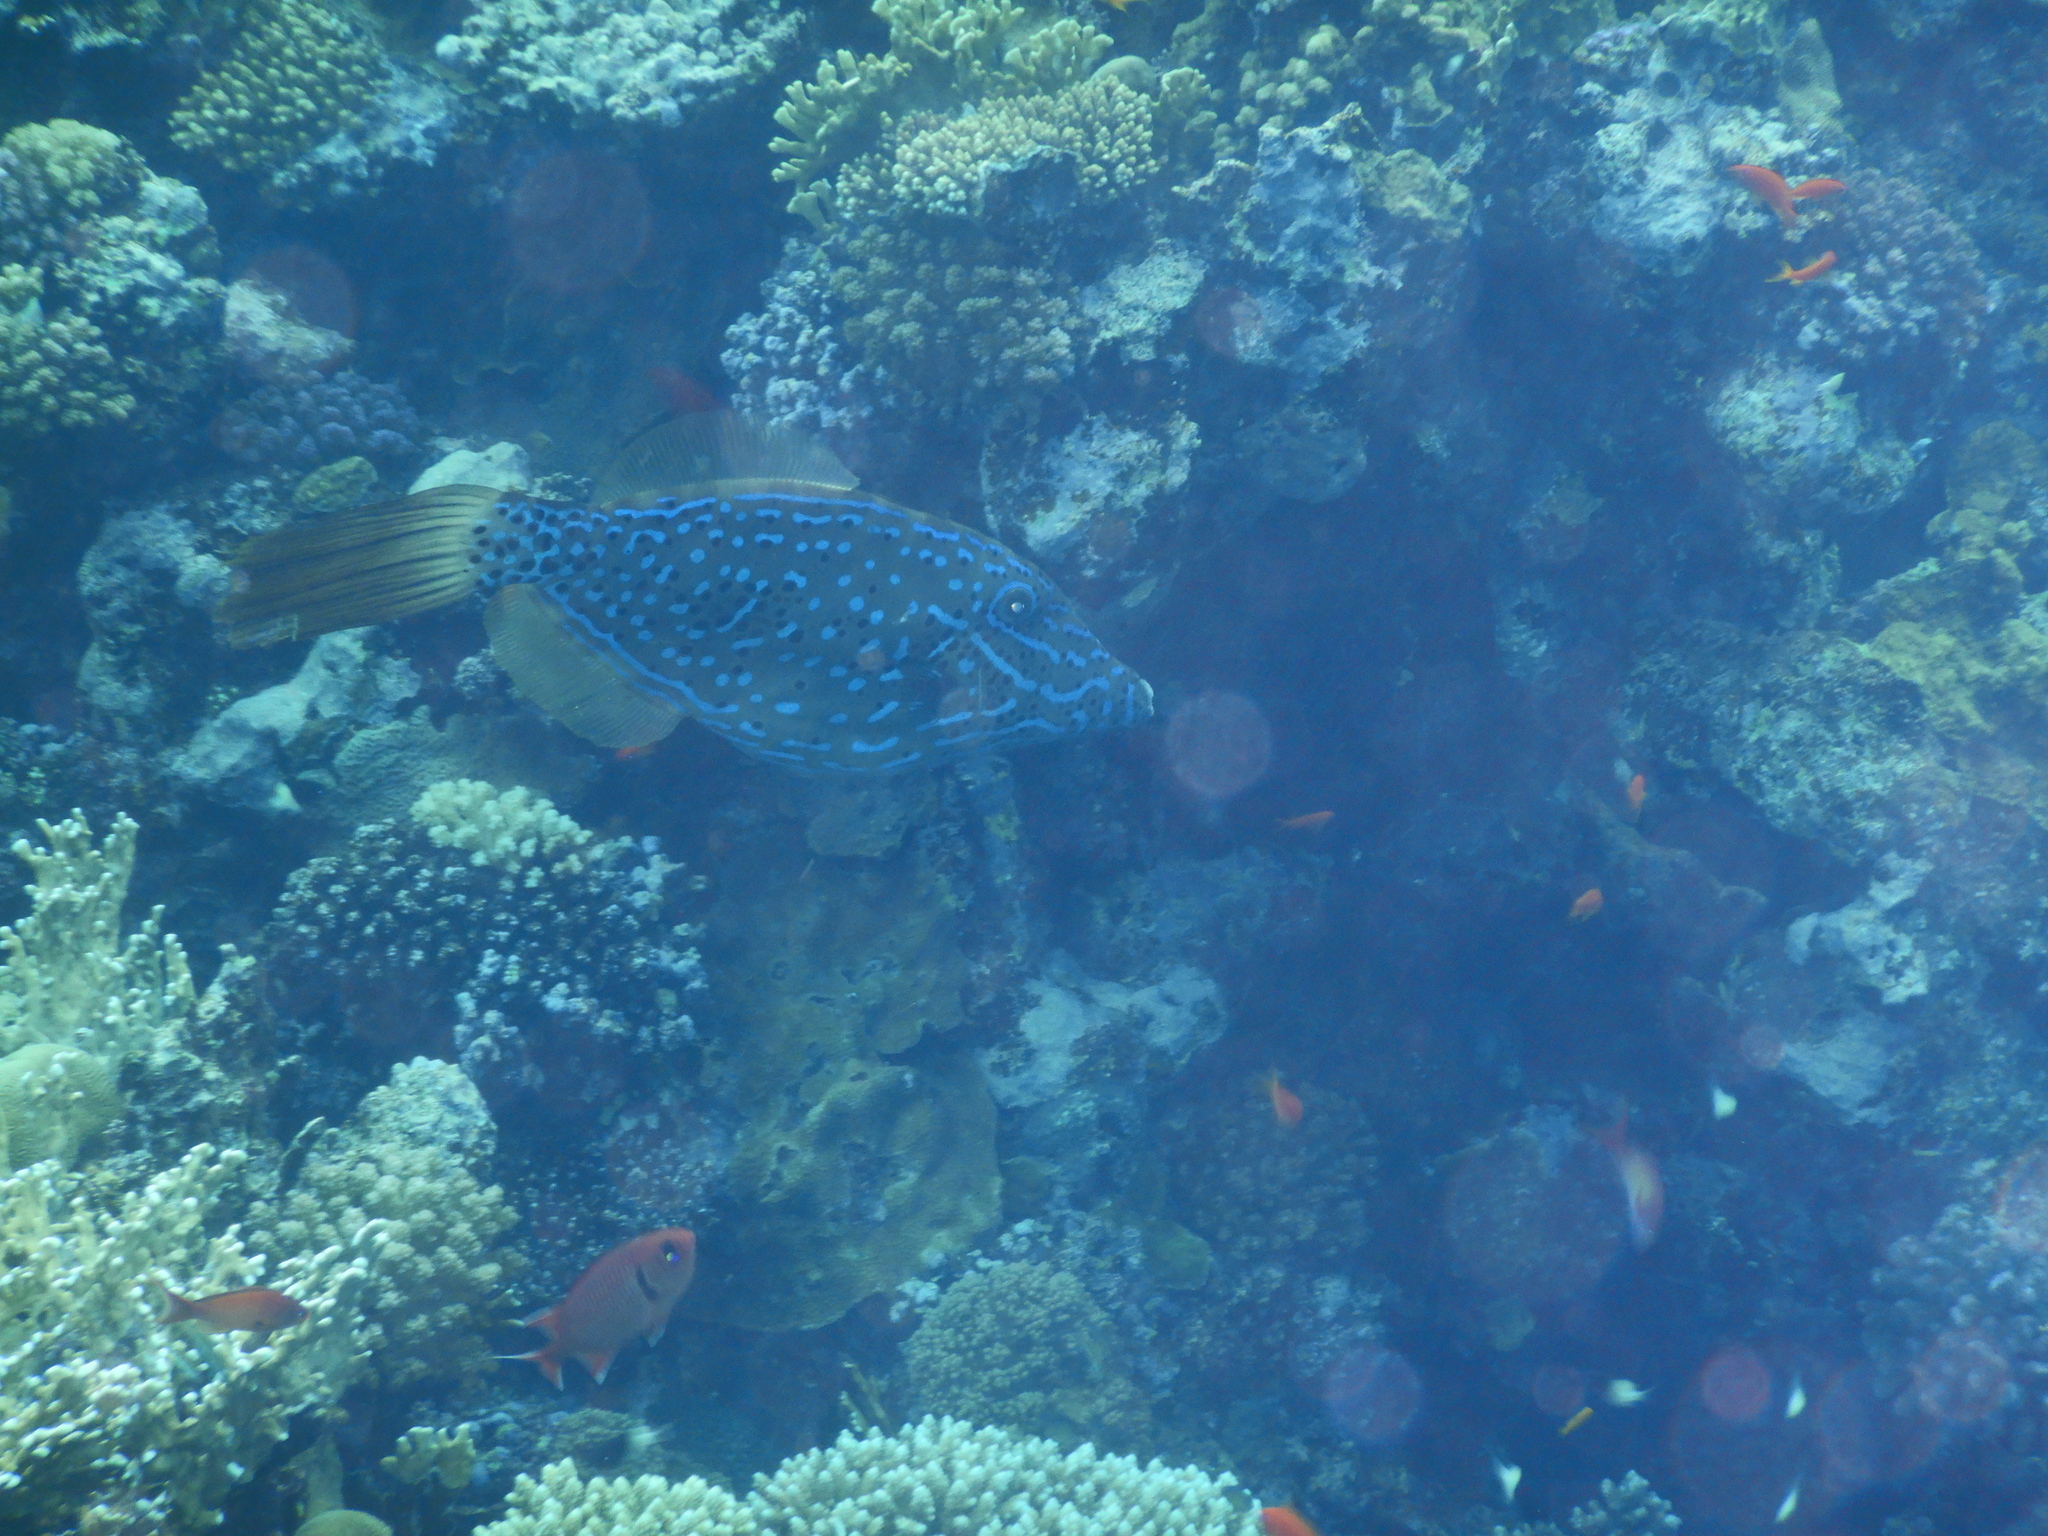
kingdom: Animalia
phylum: Chordata
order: Tetraodontiformes
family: Monacanthidae
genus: Aluterus
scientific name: Aluterus scriptus
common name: Scribbled leatherjacket filefish
